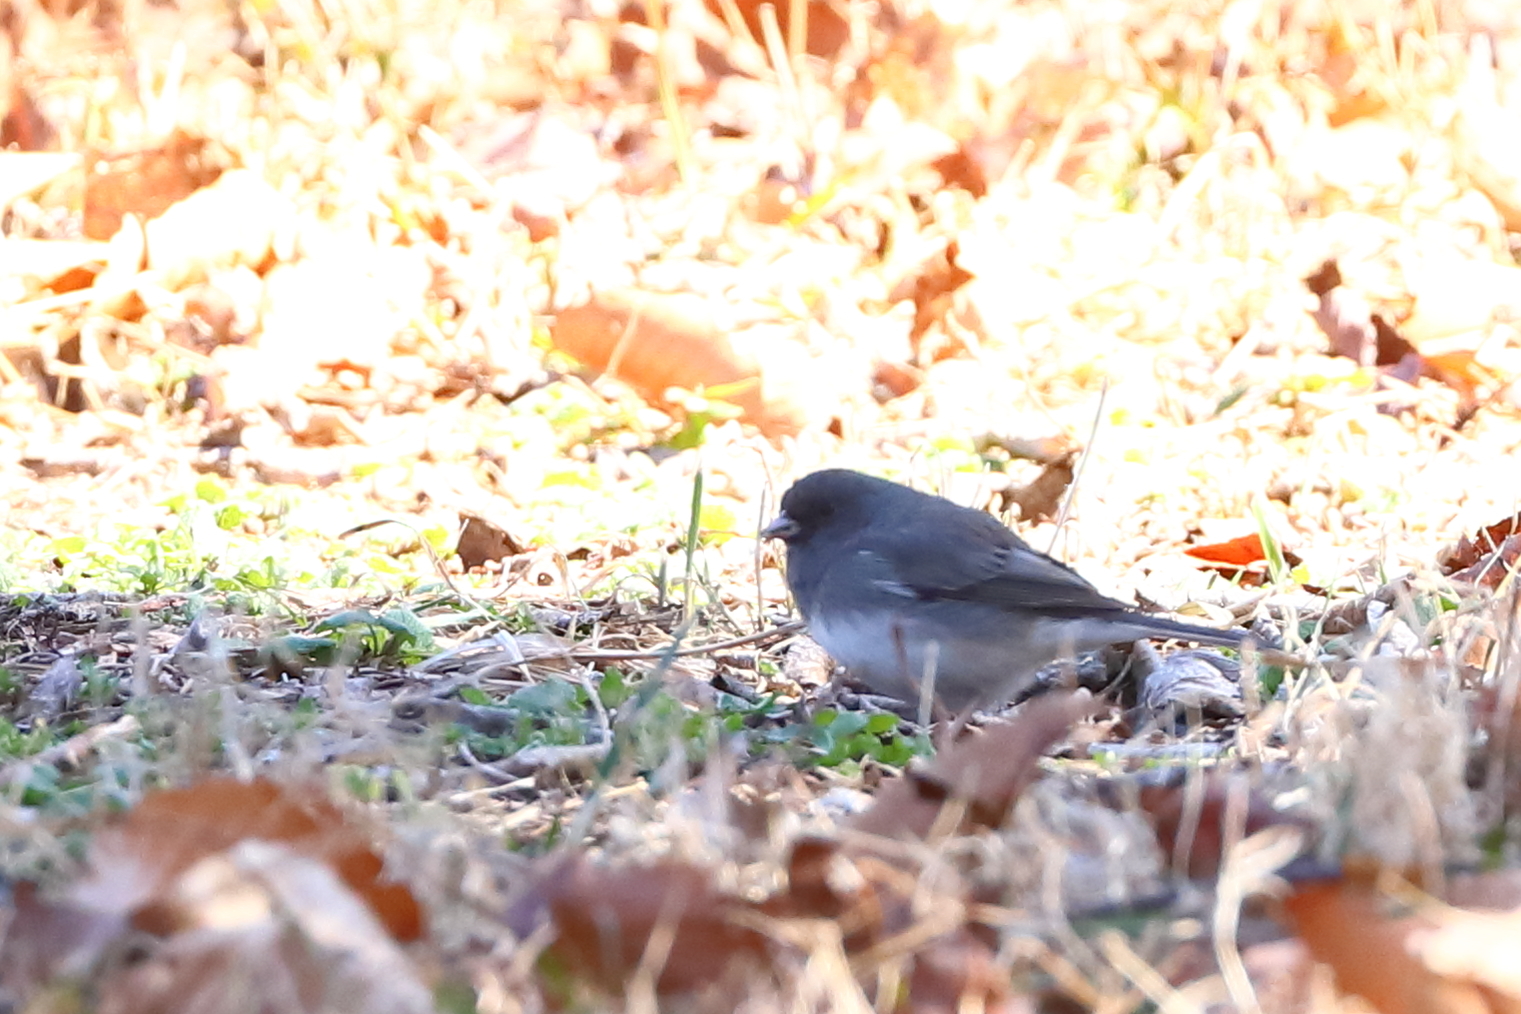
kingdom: Animalia
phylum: Chordata
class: Aves
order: Passeriformes
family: Passerellidae
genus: Junco
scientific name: Junco hyemalis
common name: Dark-eyed junco
